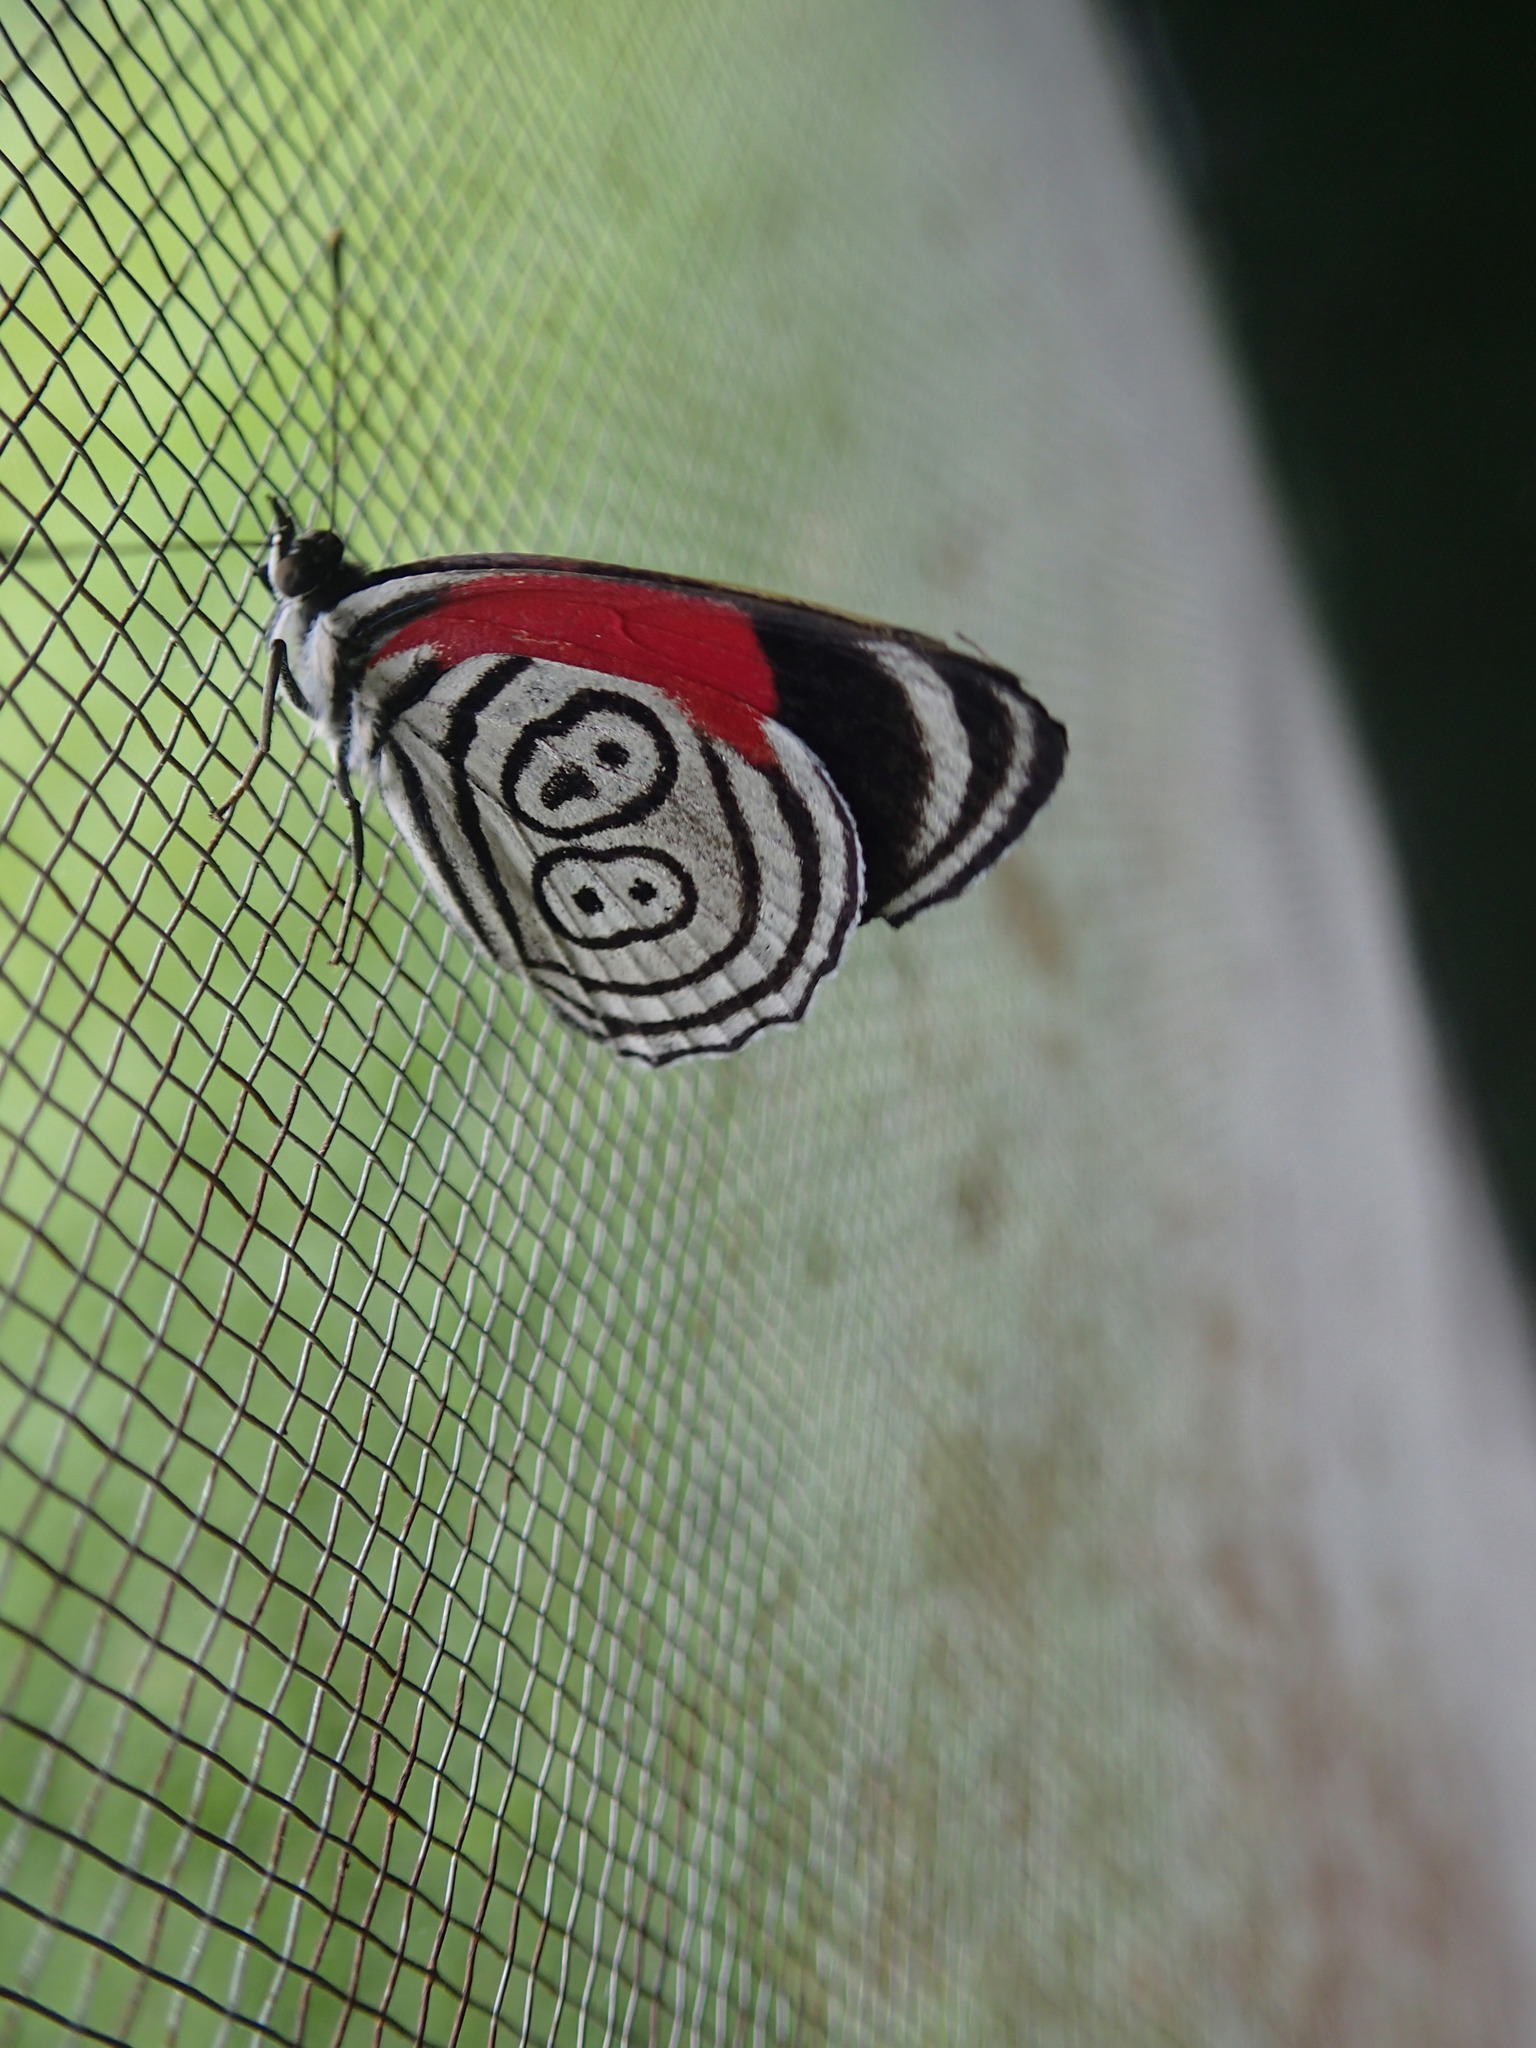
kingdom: Animalia
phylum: Arthropoda
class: Insecta
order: Lepidoptera
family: Nymphalidae
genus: Diaethria
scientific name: Diaethria clymena
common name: Widespread eighty-eight
